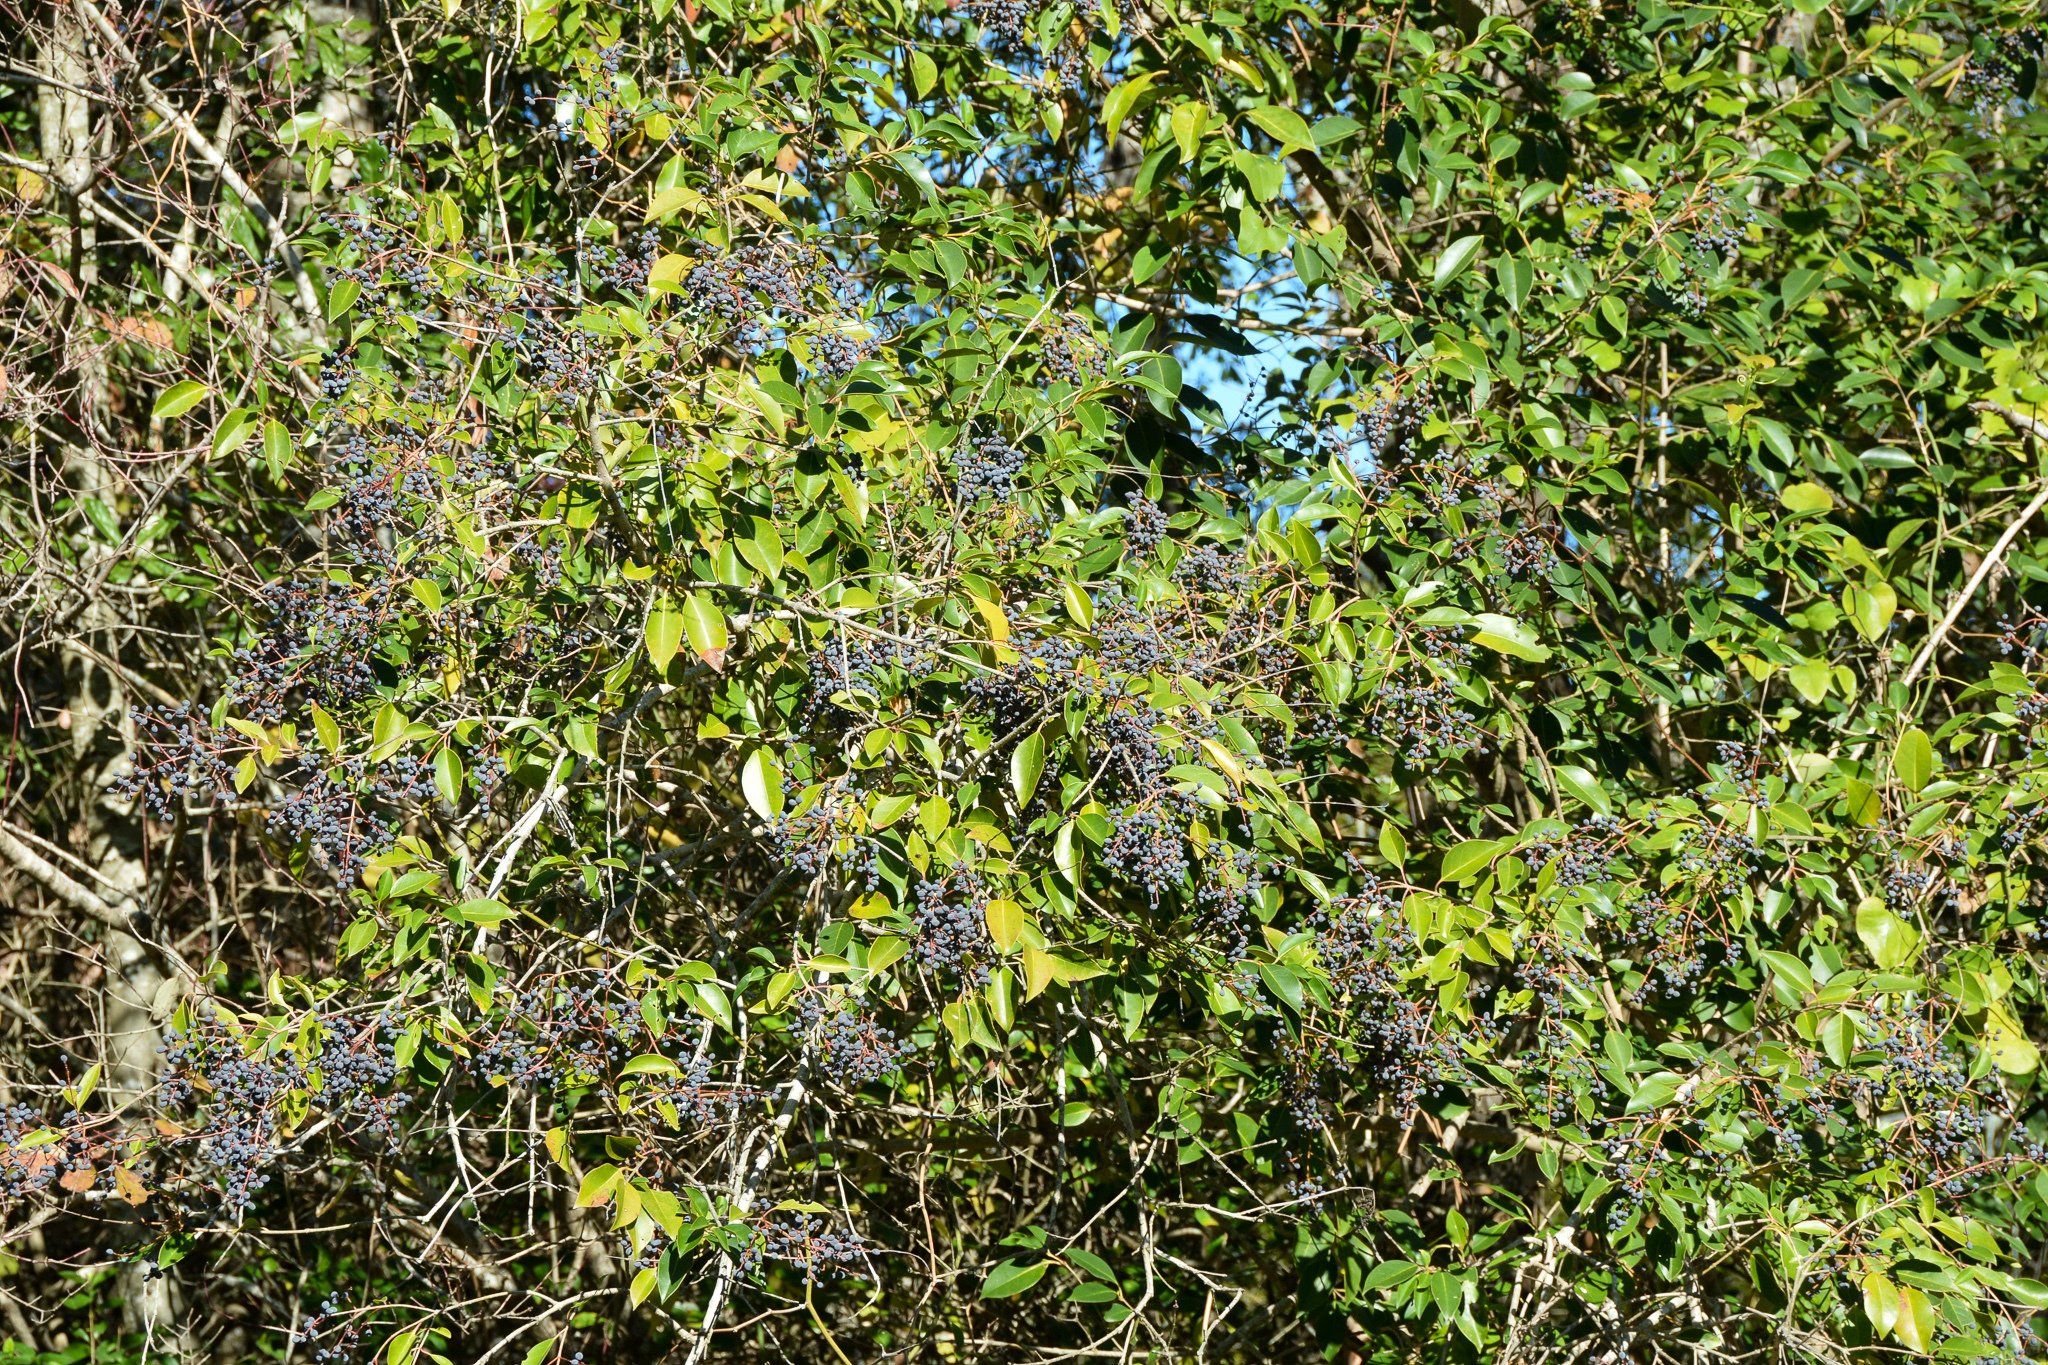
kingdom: Plantae
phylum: Tracheophyta
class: Magnoliopsida
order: Lamiales
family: Oleaceae
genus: Ligustrum
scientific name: Ligustrum lucidum
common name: Glossy privet
